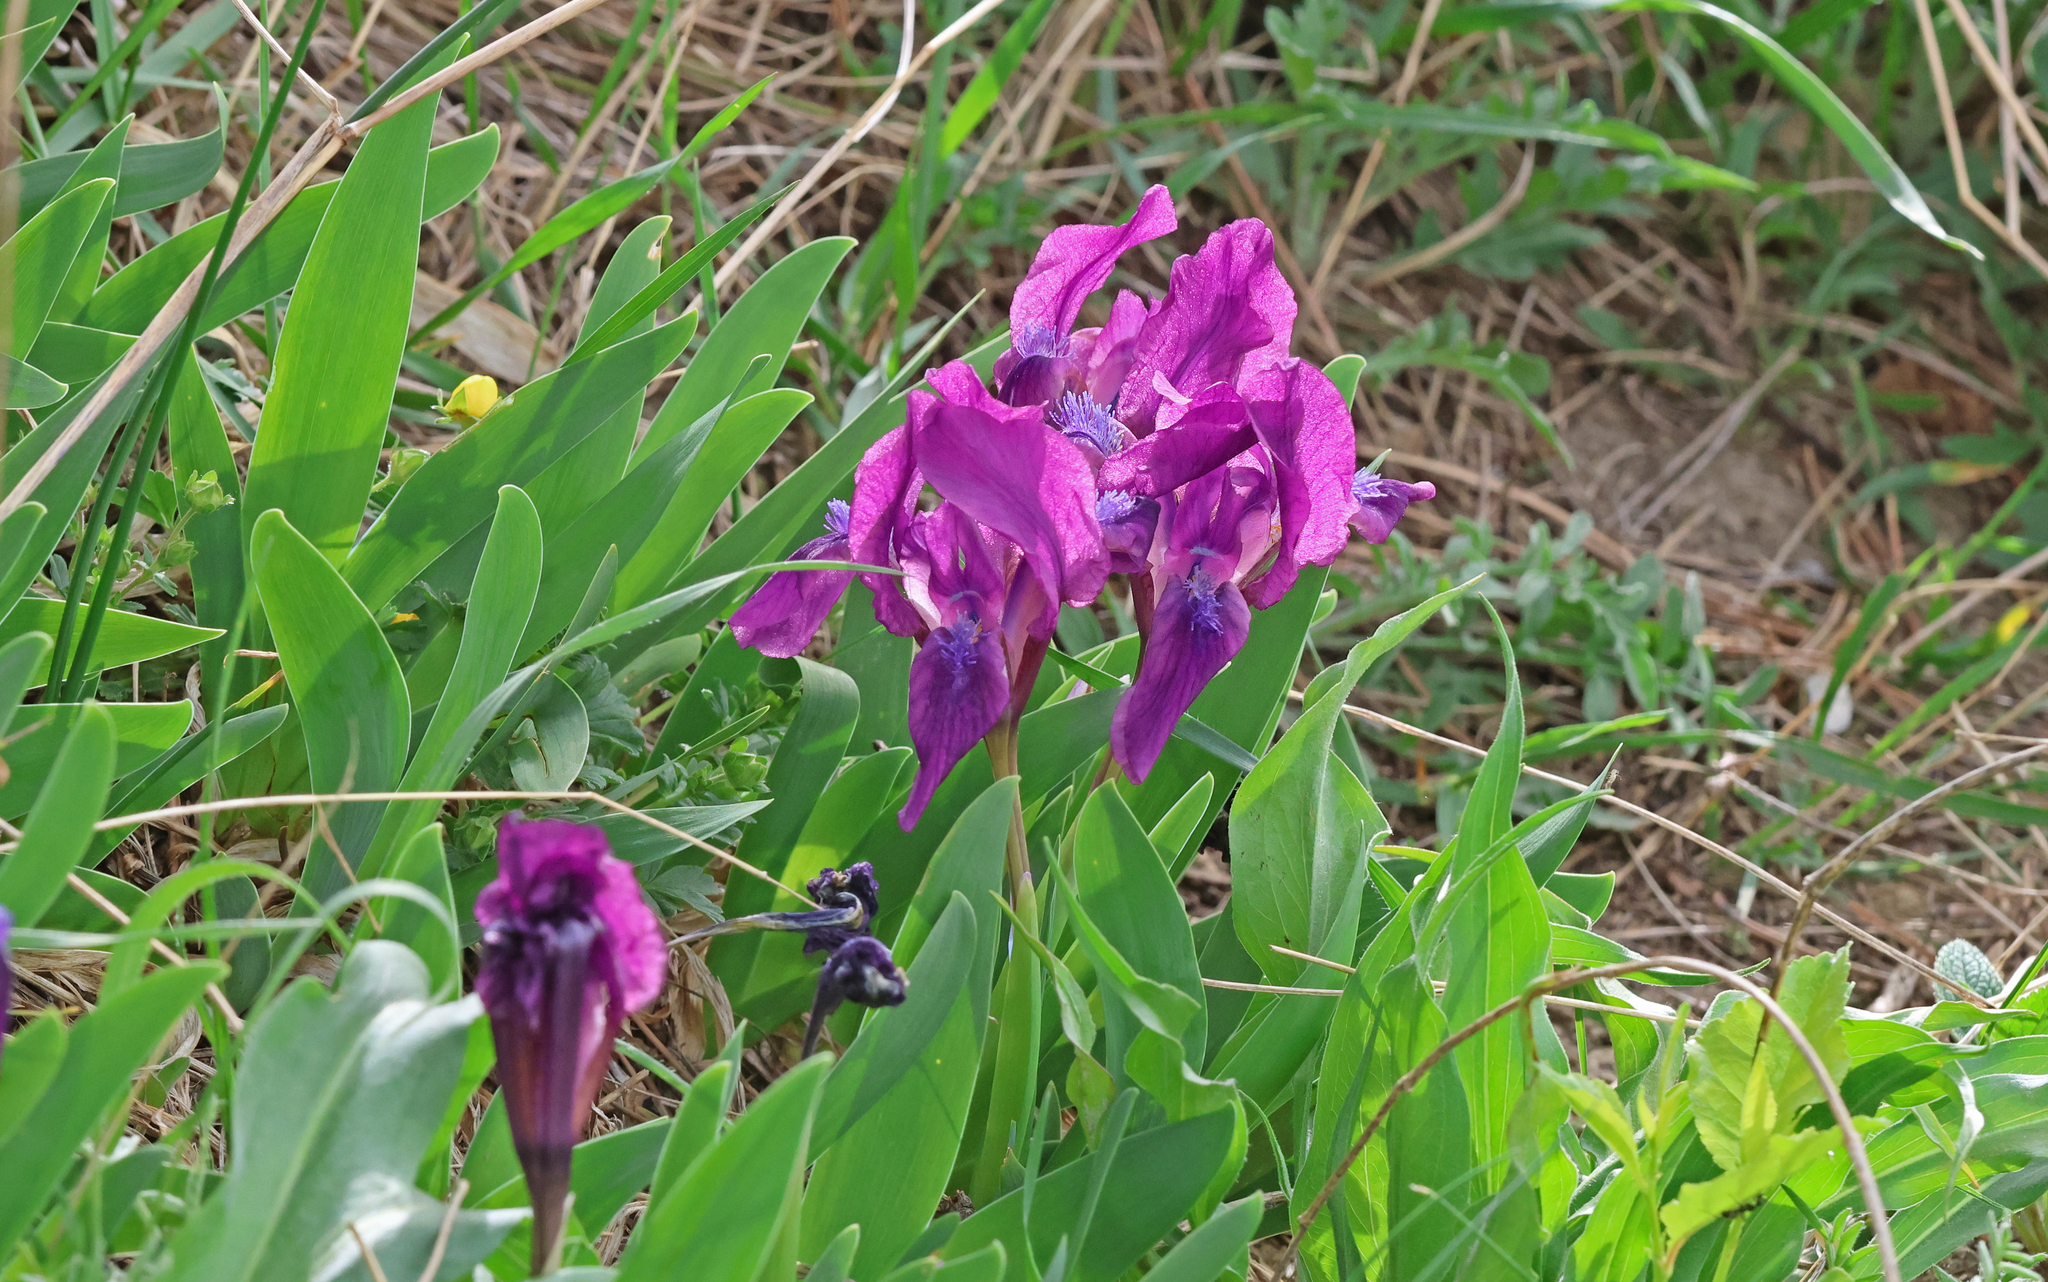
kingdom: Plantae
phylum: Tracheophyta
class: Liliopsida
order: Asparagales
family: Iridaceae
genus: Iris
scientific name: Iris pumila
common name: Dwarf iris
